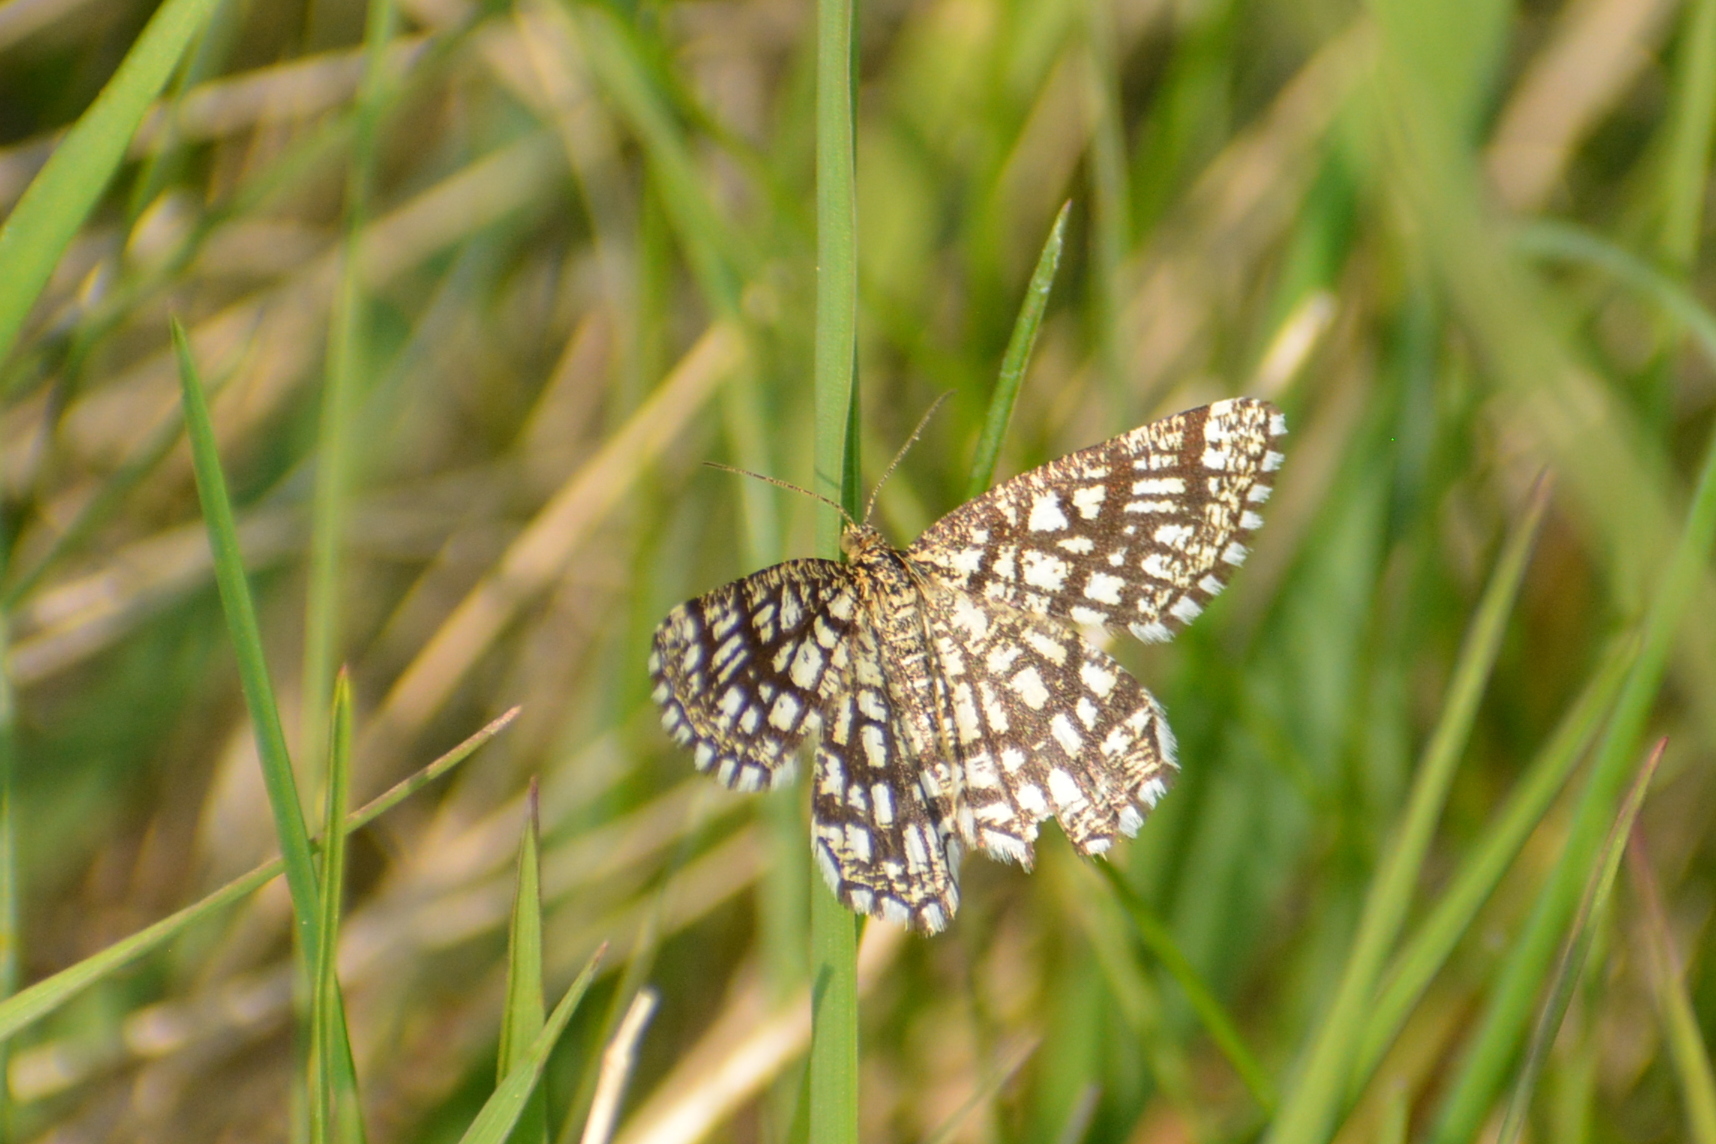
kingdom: Animalia
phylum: Arthropoda
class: Insecta
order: Lepidoptera
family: Geometridae
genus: Chiasmia
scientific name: Chiasmia clathrata
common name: Latticed heath
